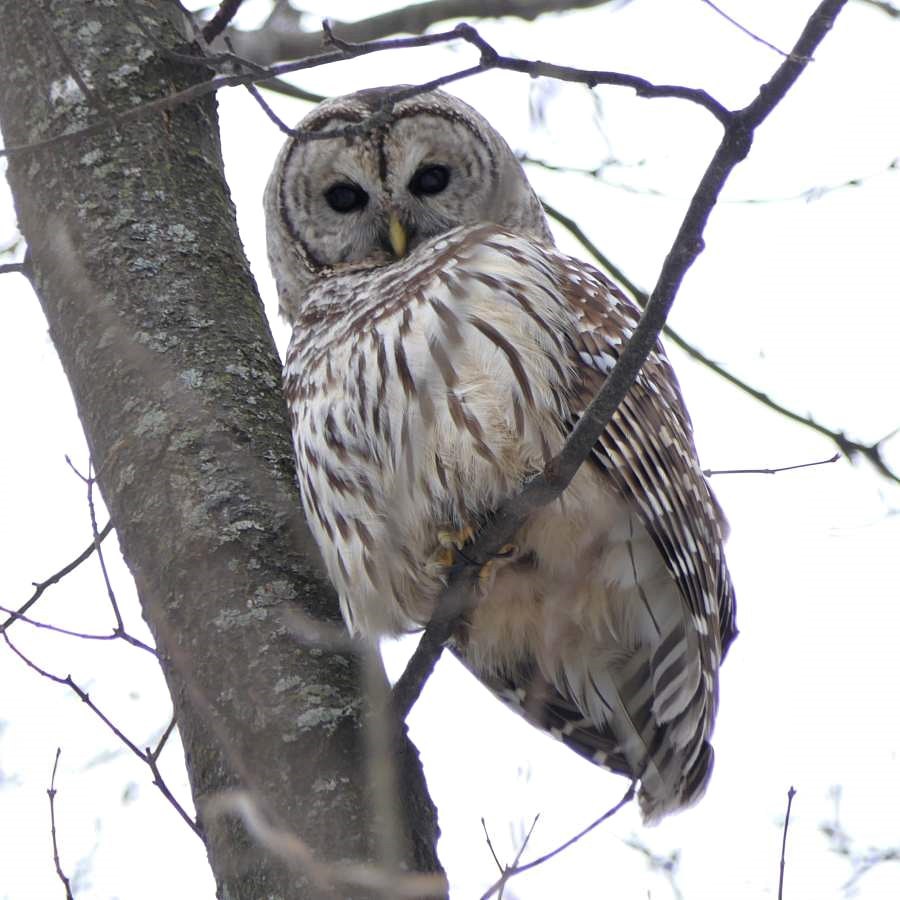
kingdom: Animalia
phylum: Chordata
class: Aves
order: Strigiformes
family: Strigidae
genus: Strix
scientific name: Strix varia
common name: Barred owl
